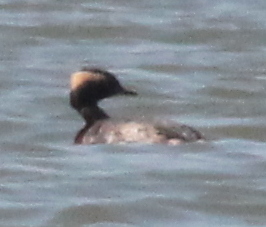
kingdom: Animalia
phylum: Chordata
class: Aves
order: Podicipediformes
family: Podicipedidae
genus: Podiceps
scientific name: Podiceps auritus
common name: Horned grebe
